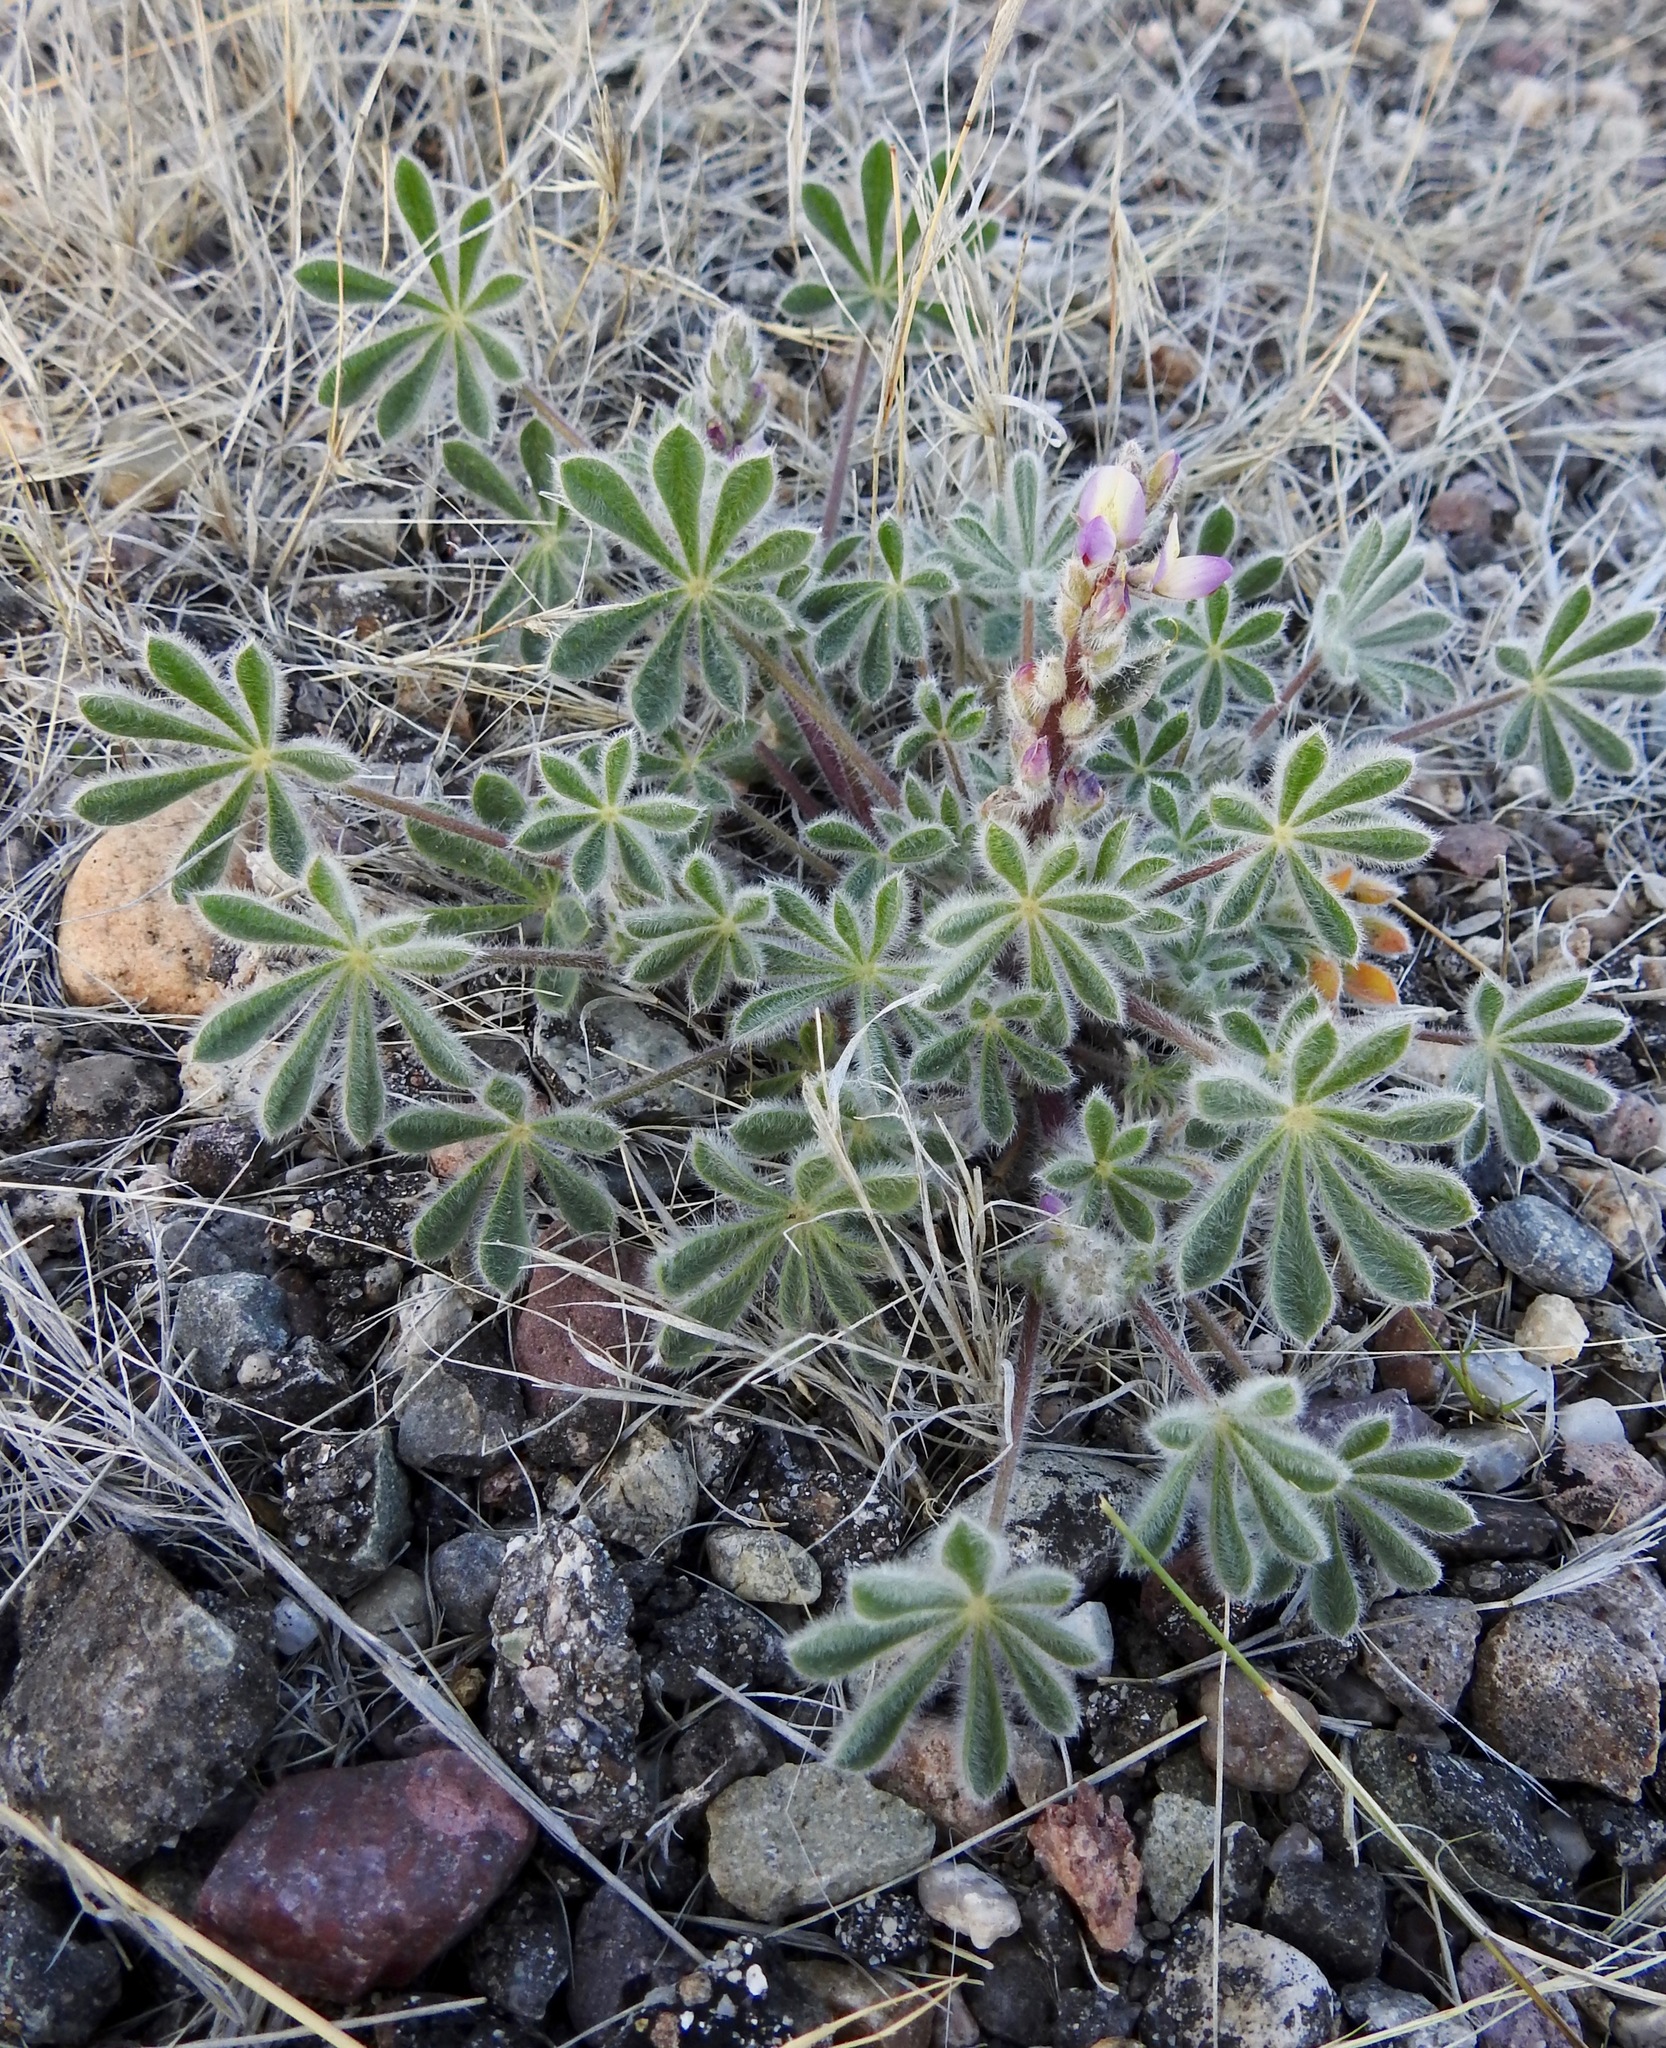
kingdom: Plantae
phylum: Tracheophyta
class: Magnoliopsida
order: Fabales
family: Fabaceae
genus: Lupinus
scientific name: Lupinus concinnus
